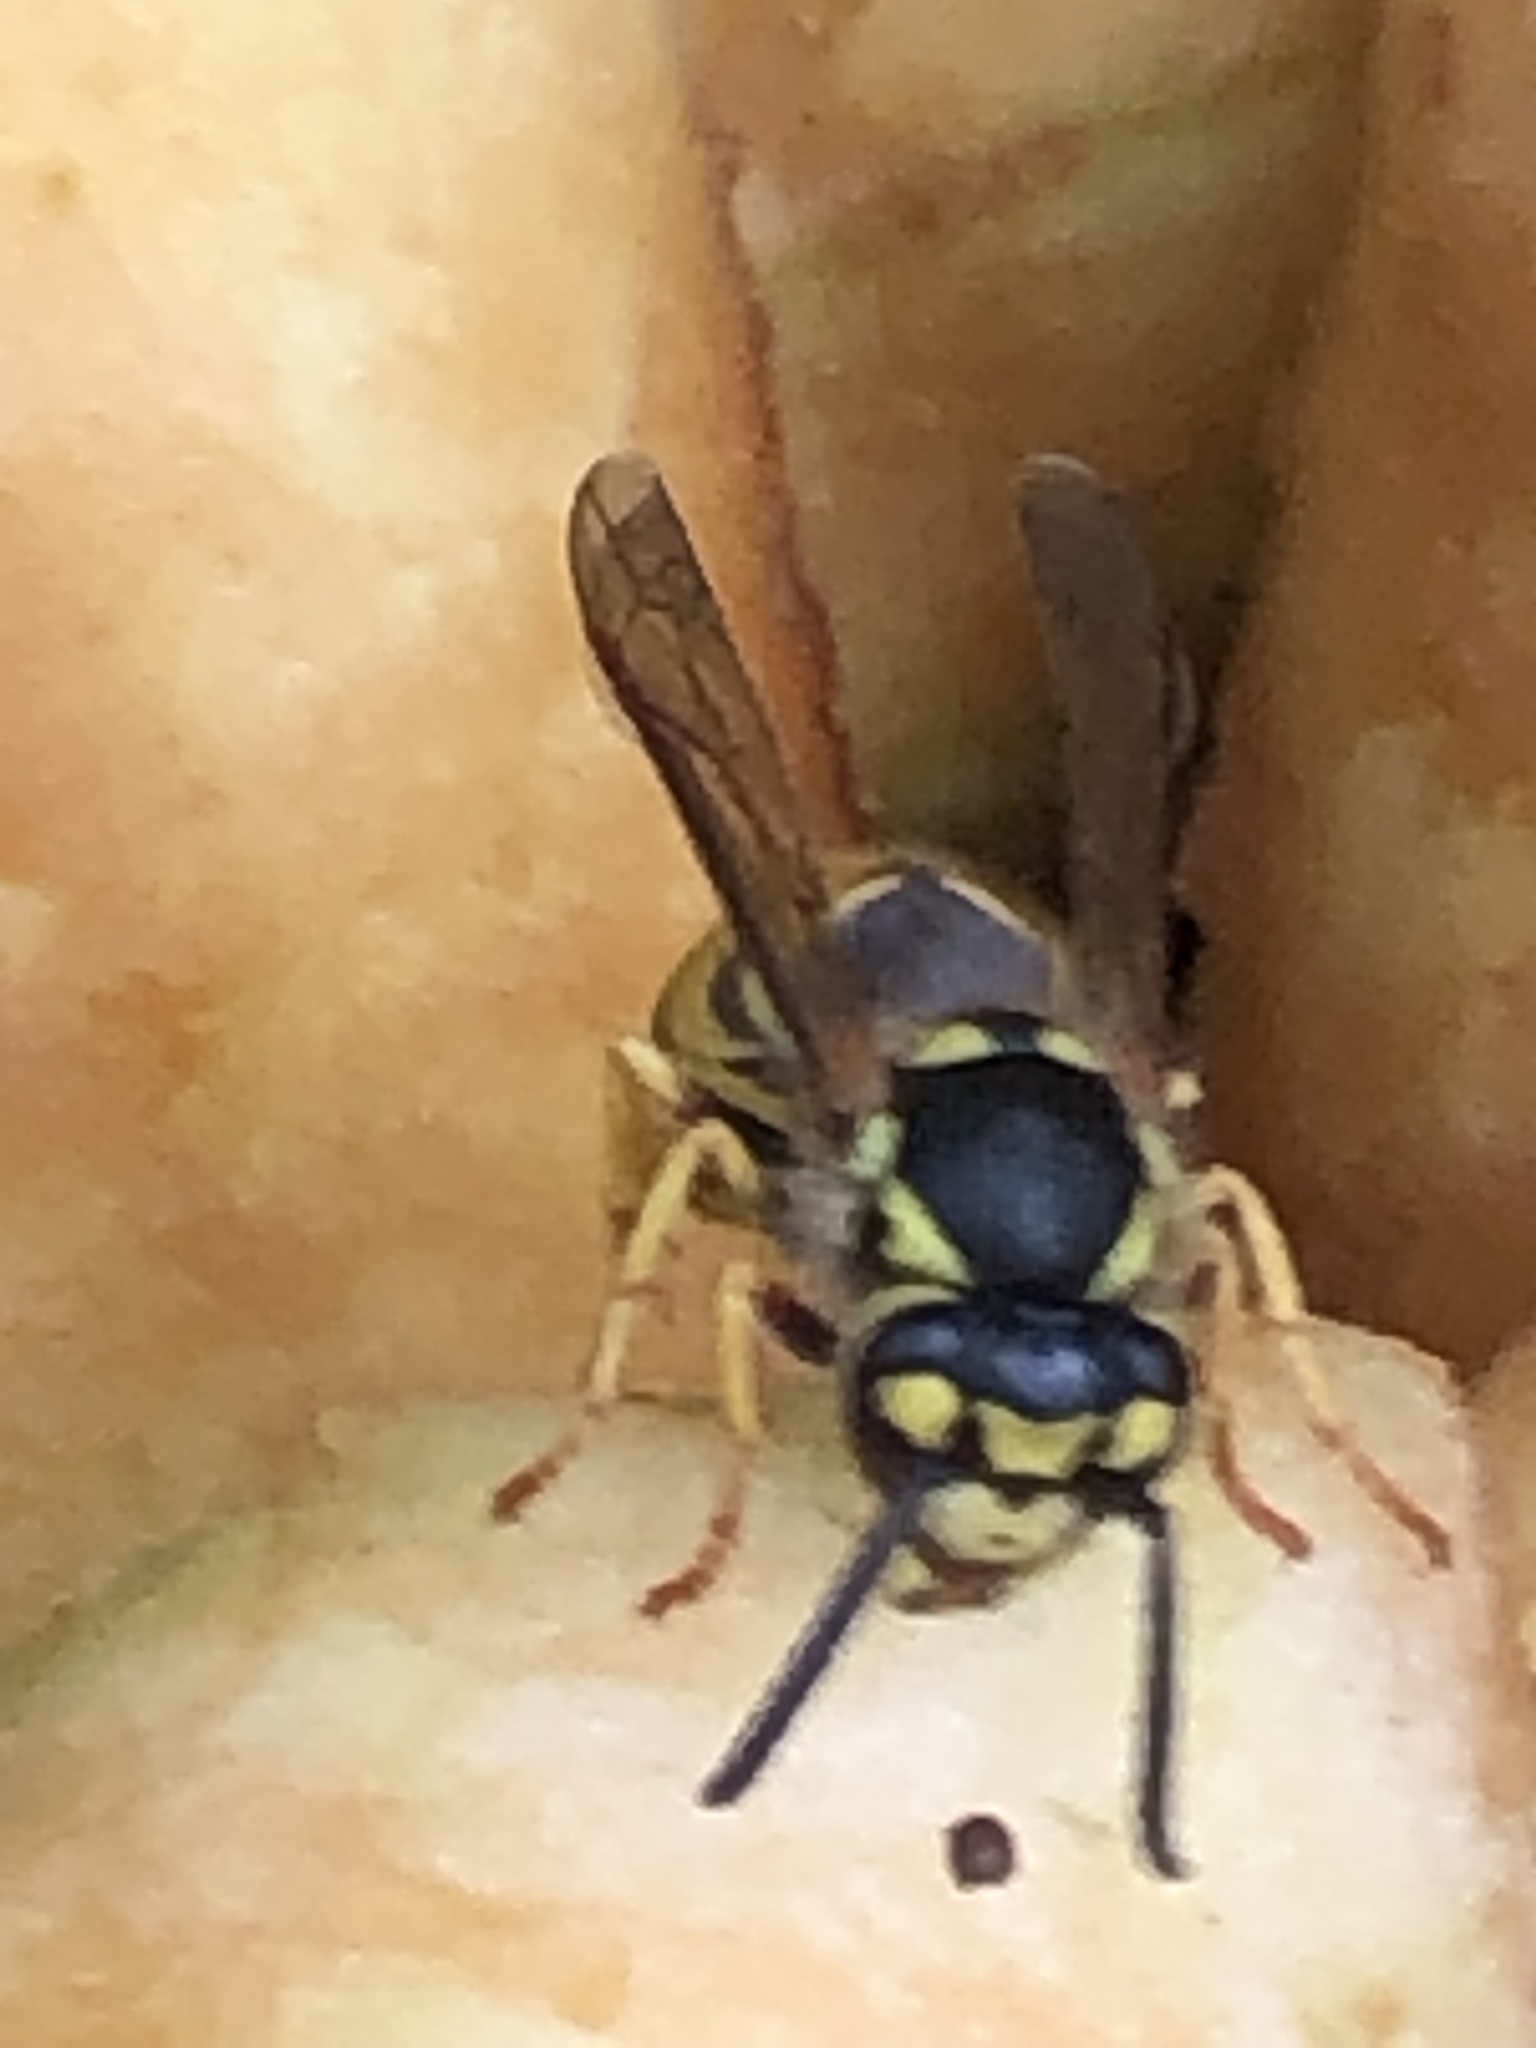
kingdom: Animalia
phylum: Arthropoda
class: Insecta
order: Hymenoptera
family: Vespidae
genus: Vespula
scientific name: Vespula germanica
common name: German wasp
